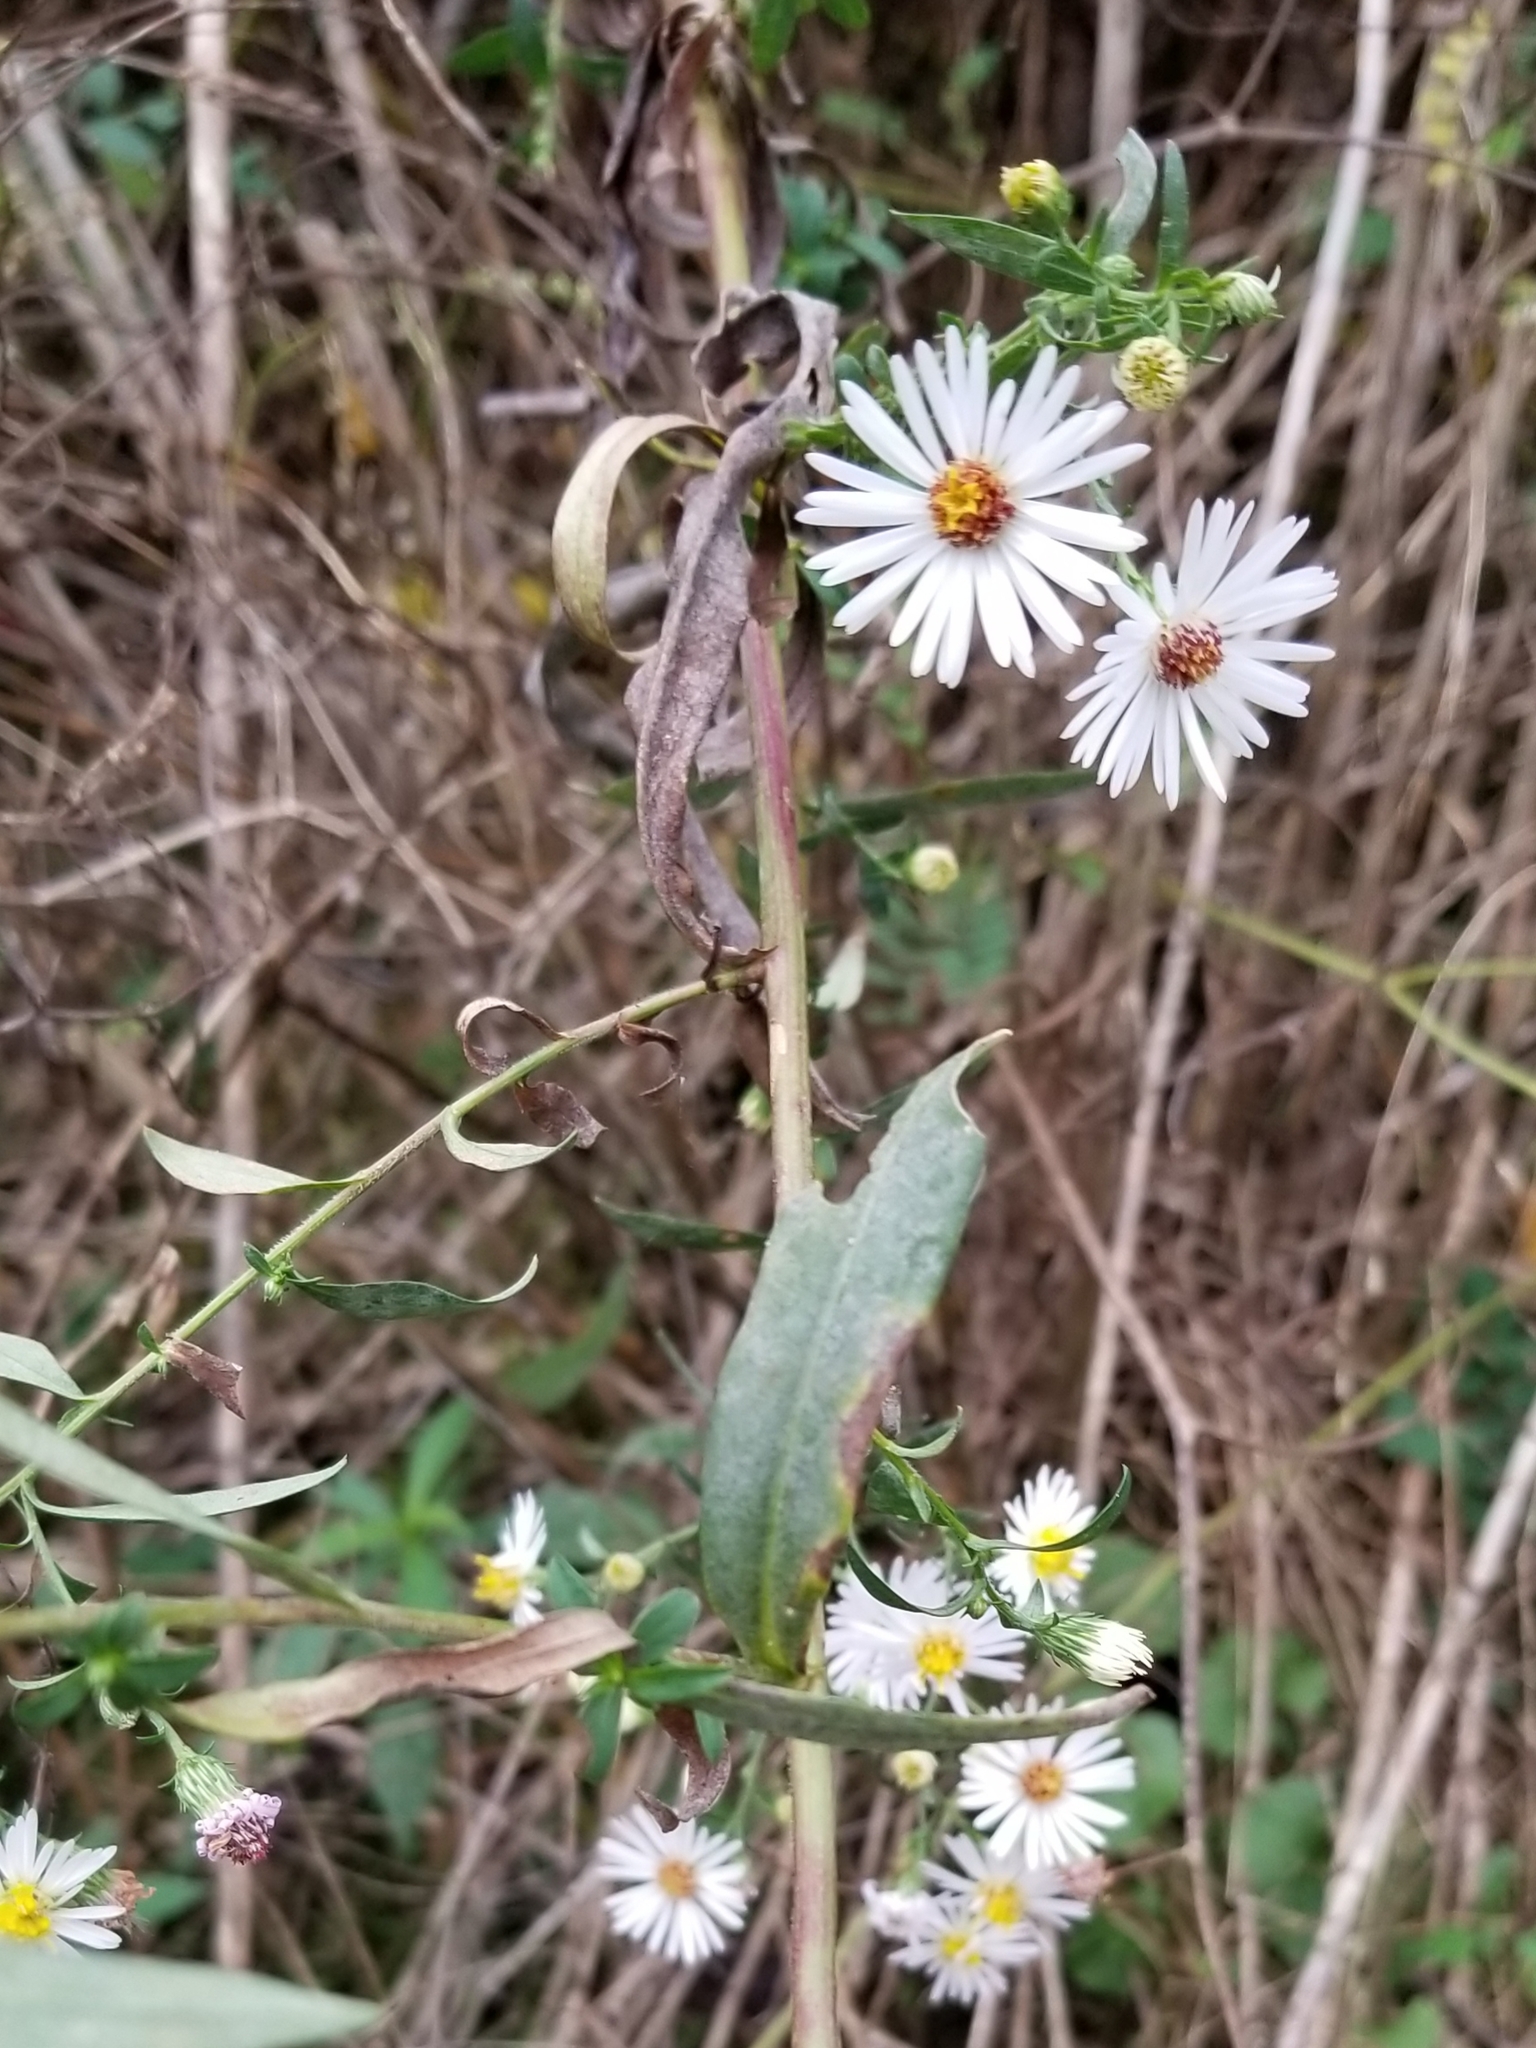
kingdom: Plantae
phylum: Tracheophyta
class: Magnoliopsida
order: Asterales
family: Asteraceae
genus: Symphyotrichum
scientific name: Symphyotrichum lanceolatum
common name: Panicled aster
